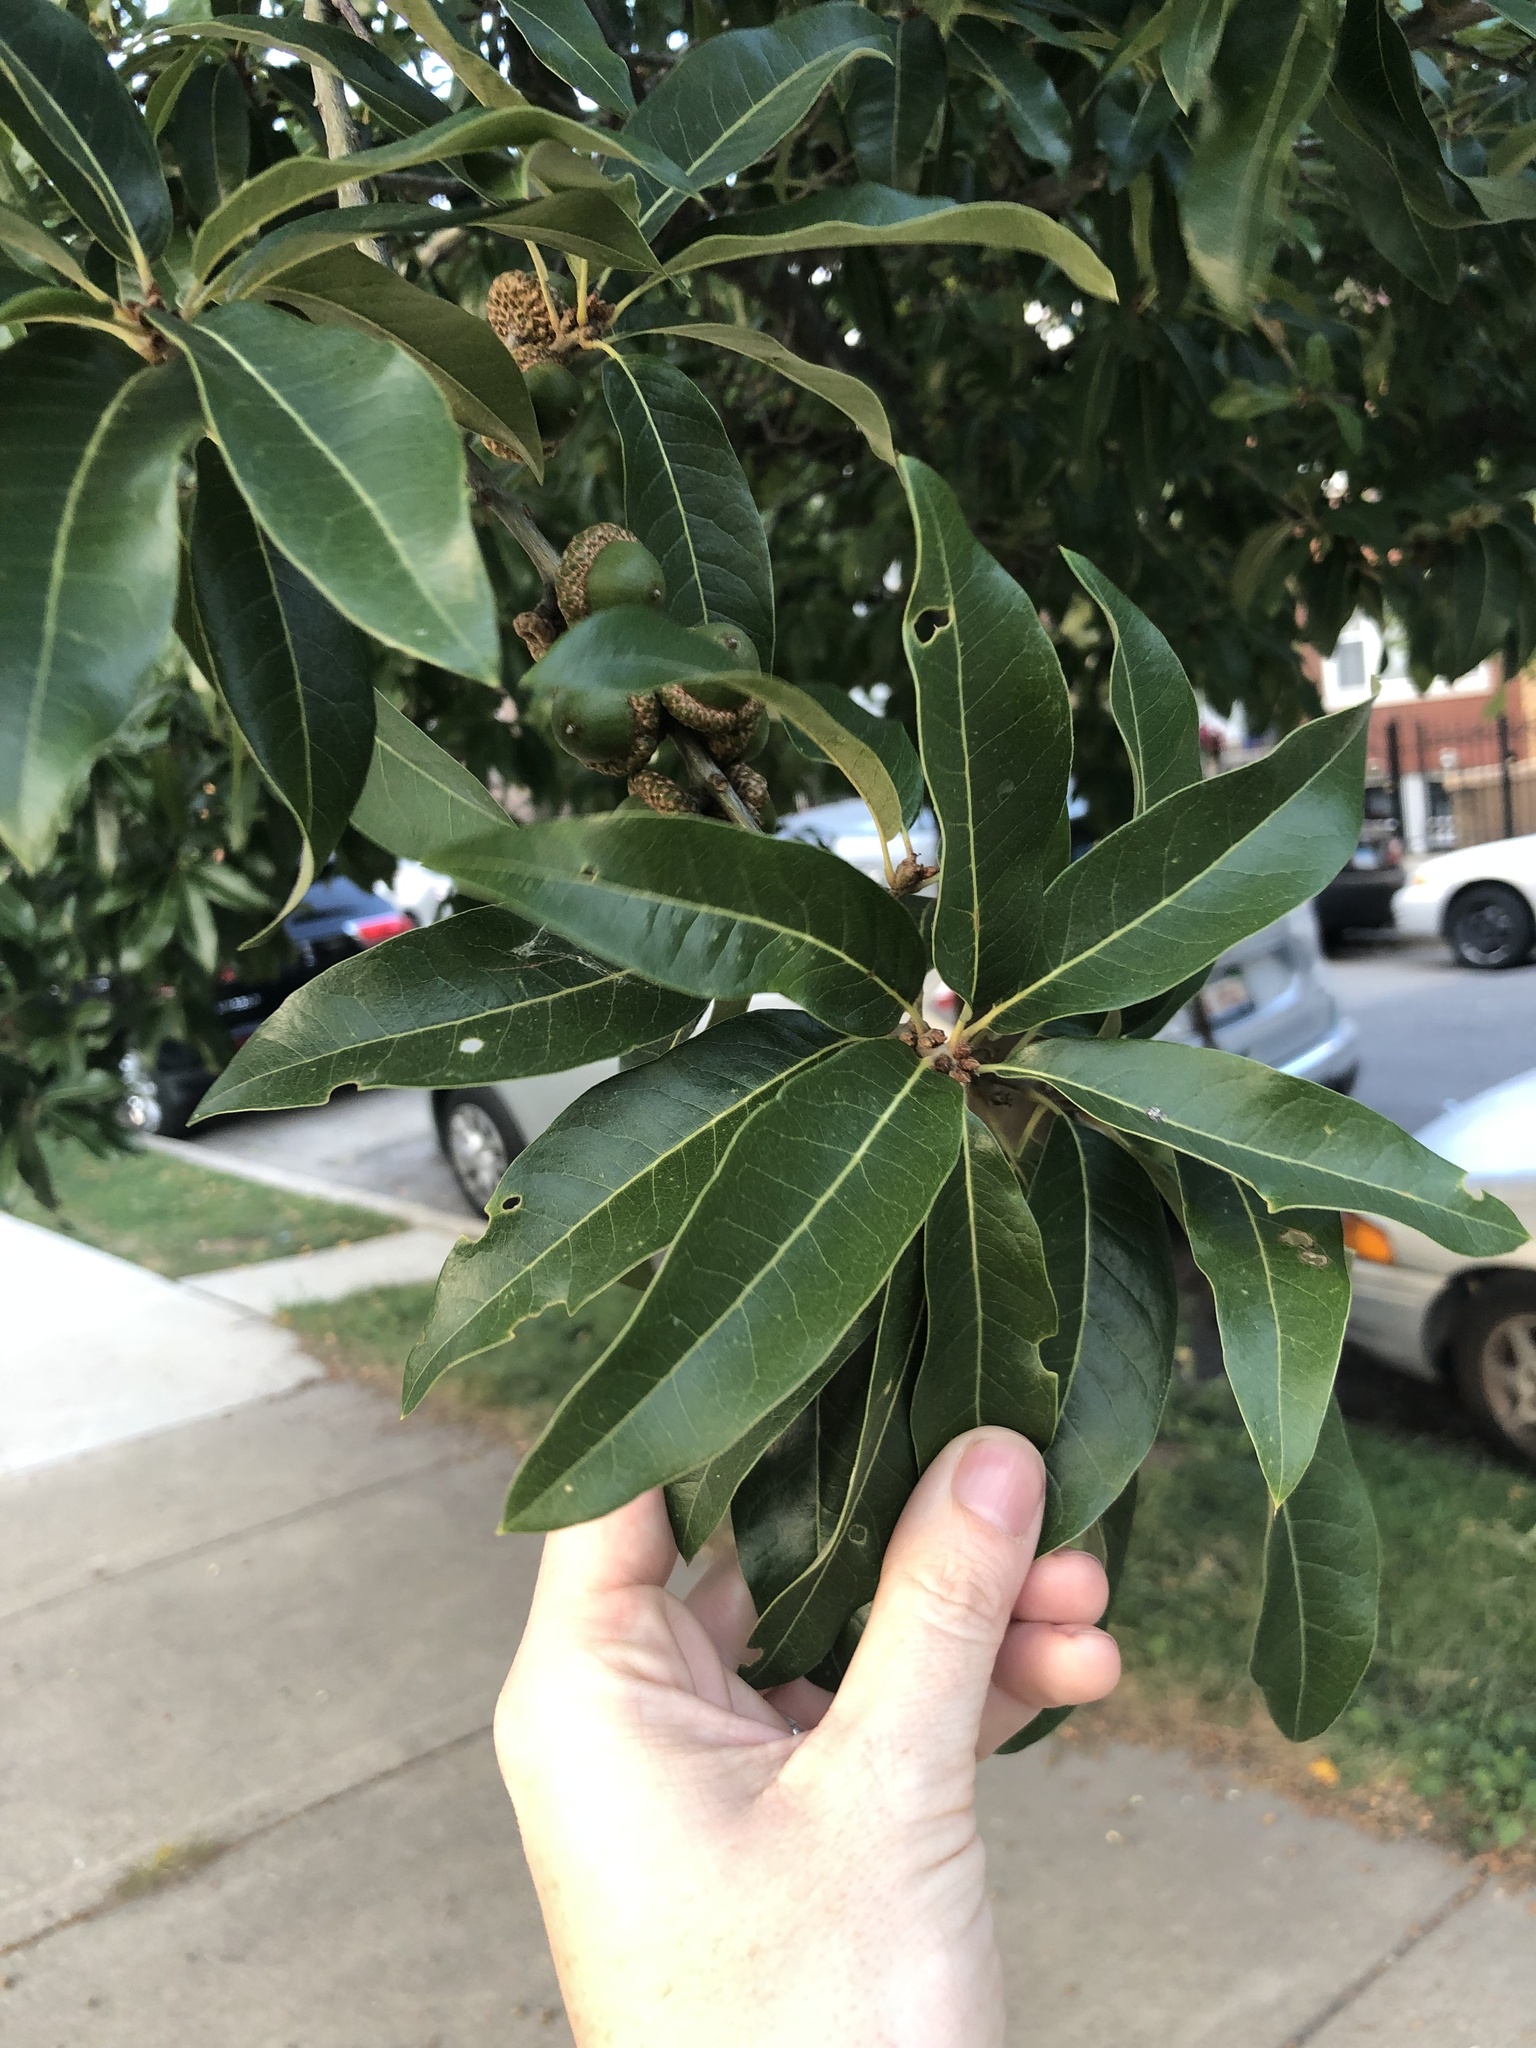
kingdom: Plantae
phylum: Tracheophyta
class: Magnoliopsida
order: Fagales
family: Fagaceae
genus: Quercus
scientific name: Quercus imbricaria
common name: Shingle oak
